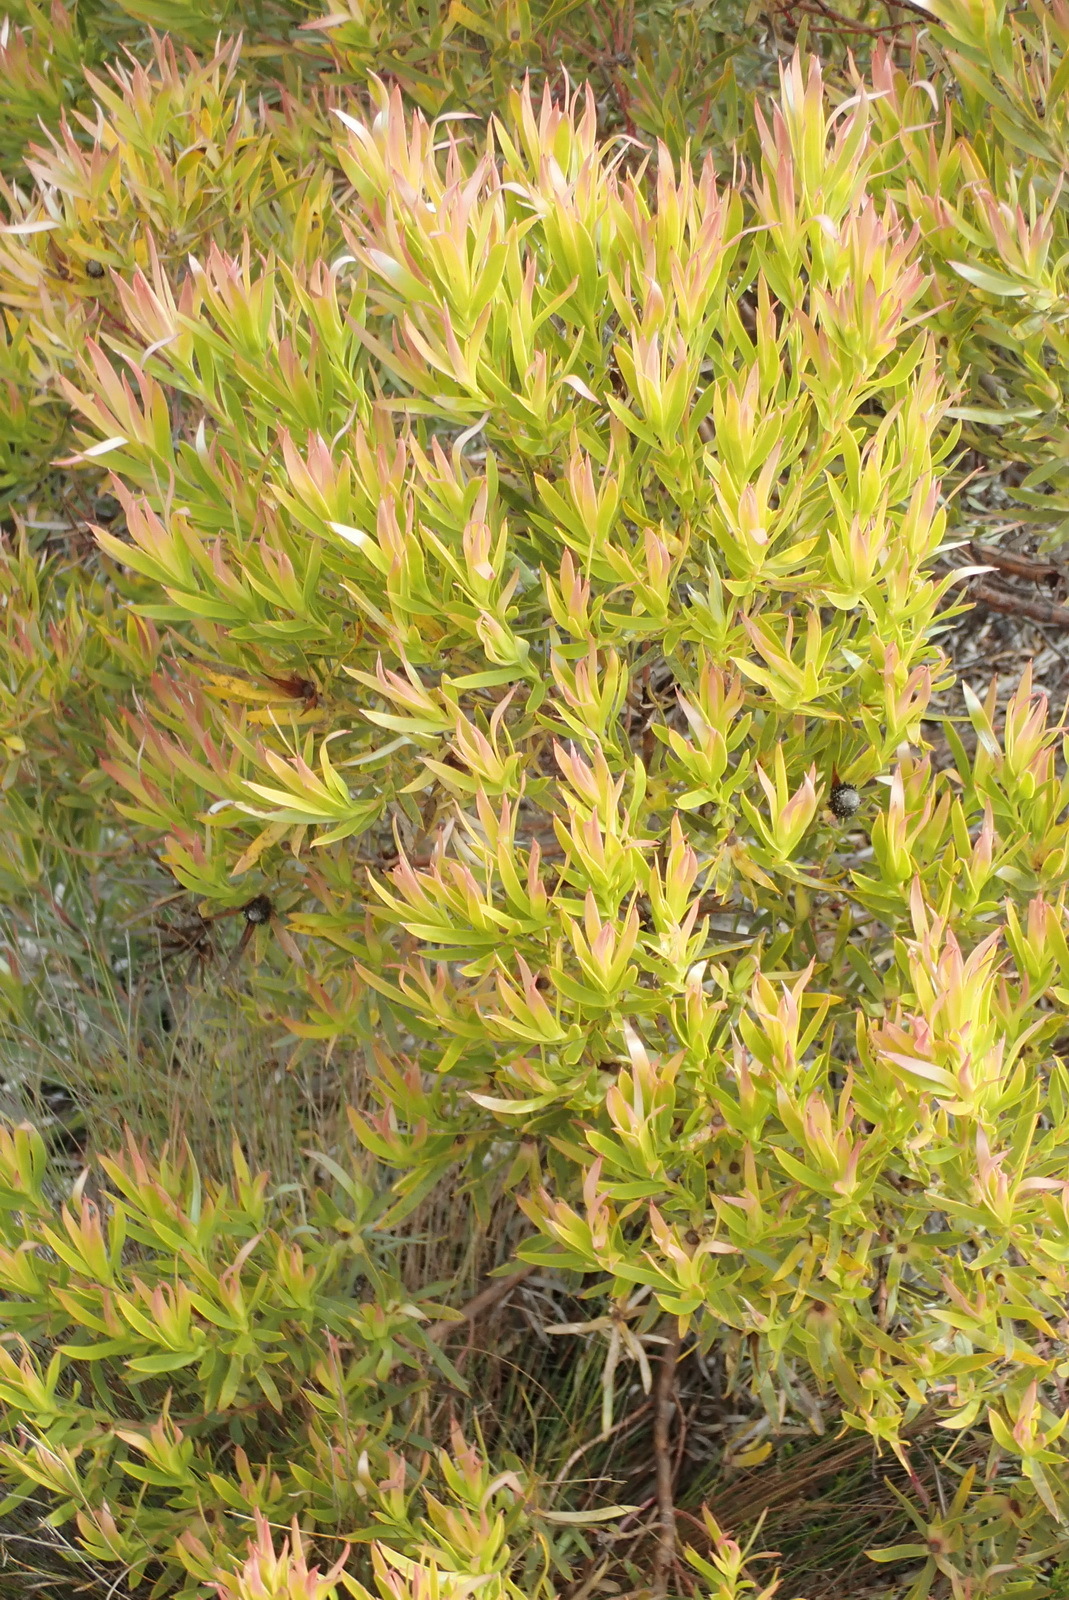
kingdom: Plantae
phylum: Tracheophyta
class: Magnoliopsida
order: Proteales
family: Proteaceae
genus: Leucadendron
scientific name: Leucadendron xanthoconus
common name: Sickle-leaf conebush
